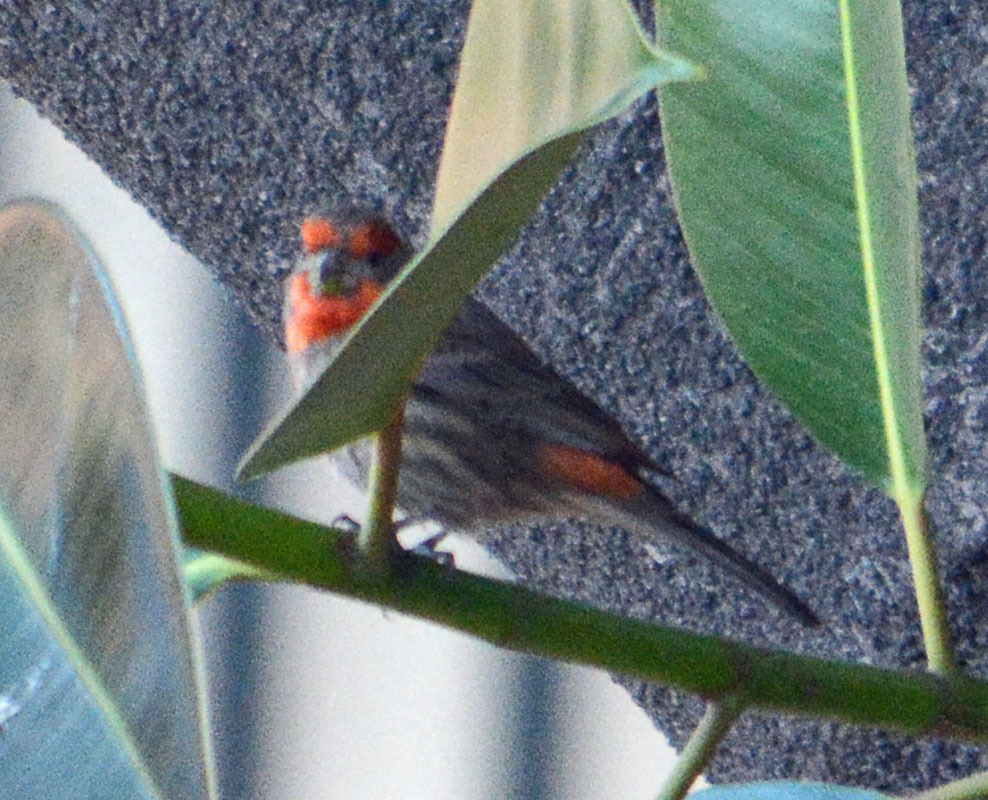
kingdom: Animalia
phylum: Chordata
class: Aves
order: Passeriformes
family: Fringillidae
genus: Haemorhous
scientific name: Haemorhous mexicanus
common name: House finch
